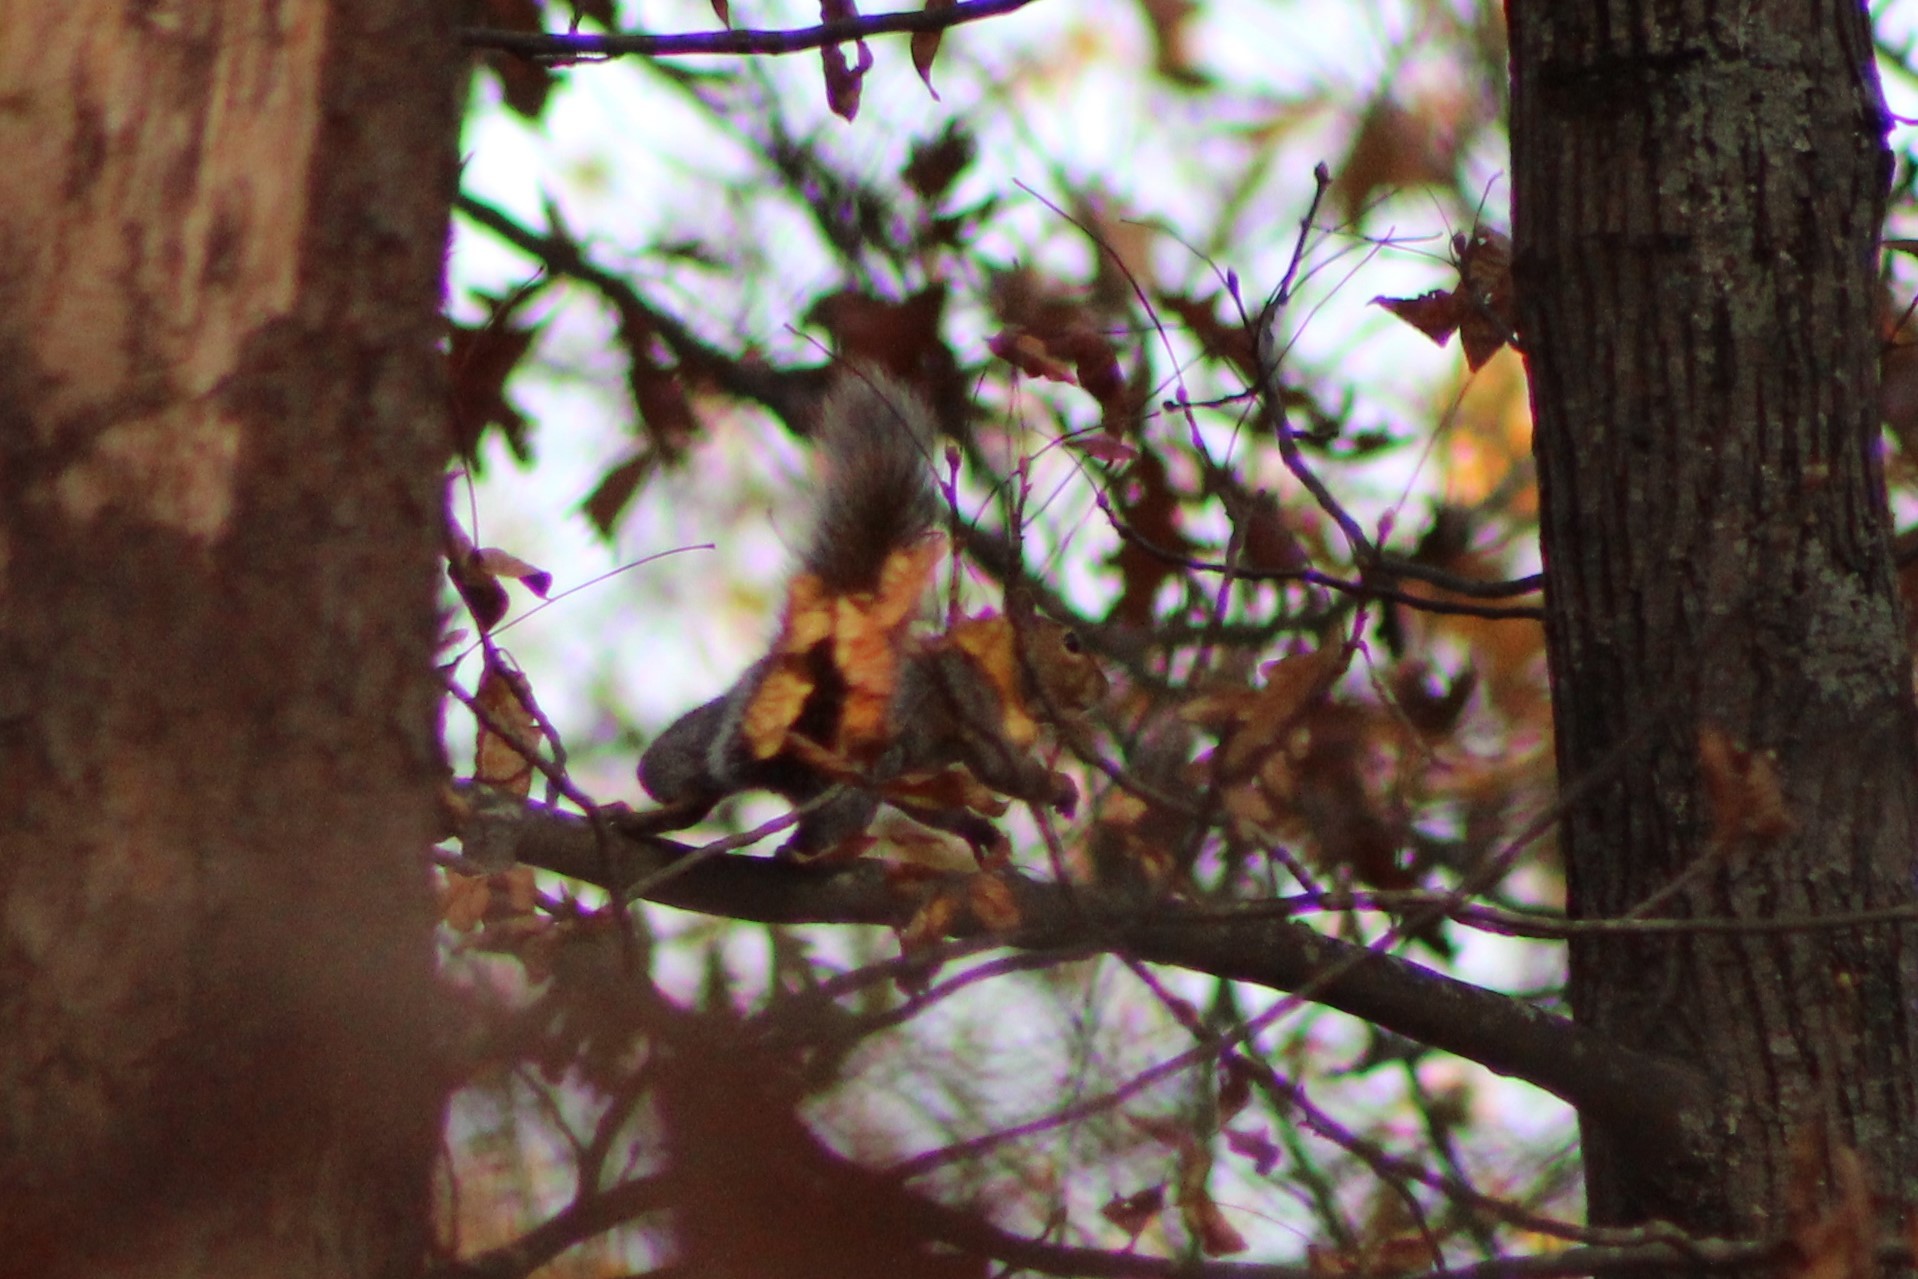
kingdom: Animalia
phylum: Chordata
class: Mammalia
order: Rodentia
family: Sciuridae
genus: Sciurus
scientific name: Sciurus carolinensis
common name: Eastern gray squirrel
